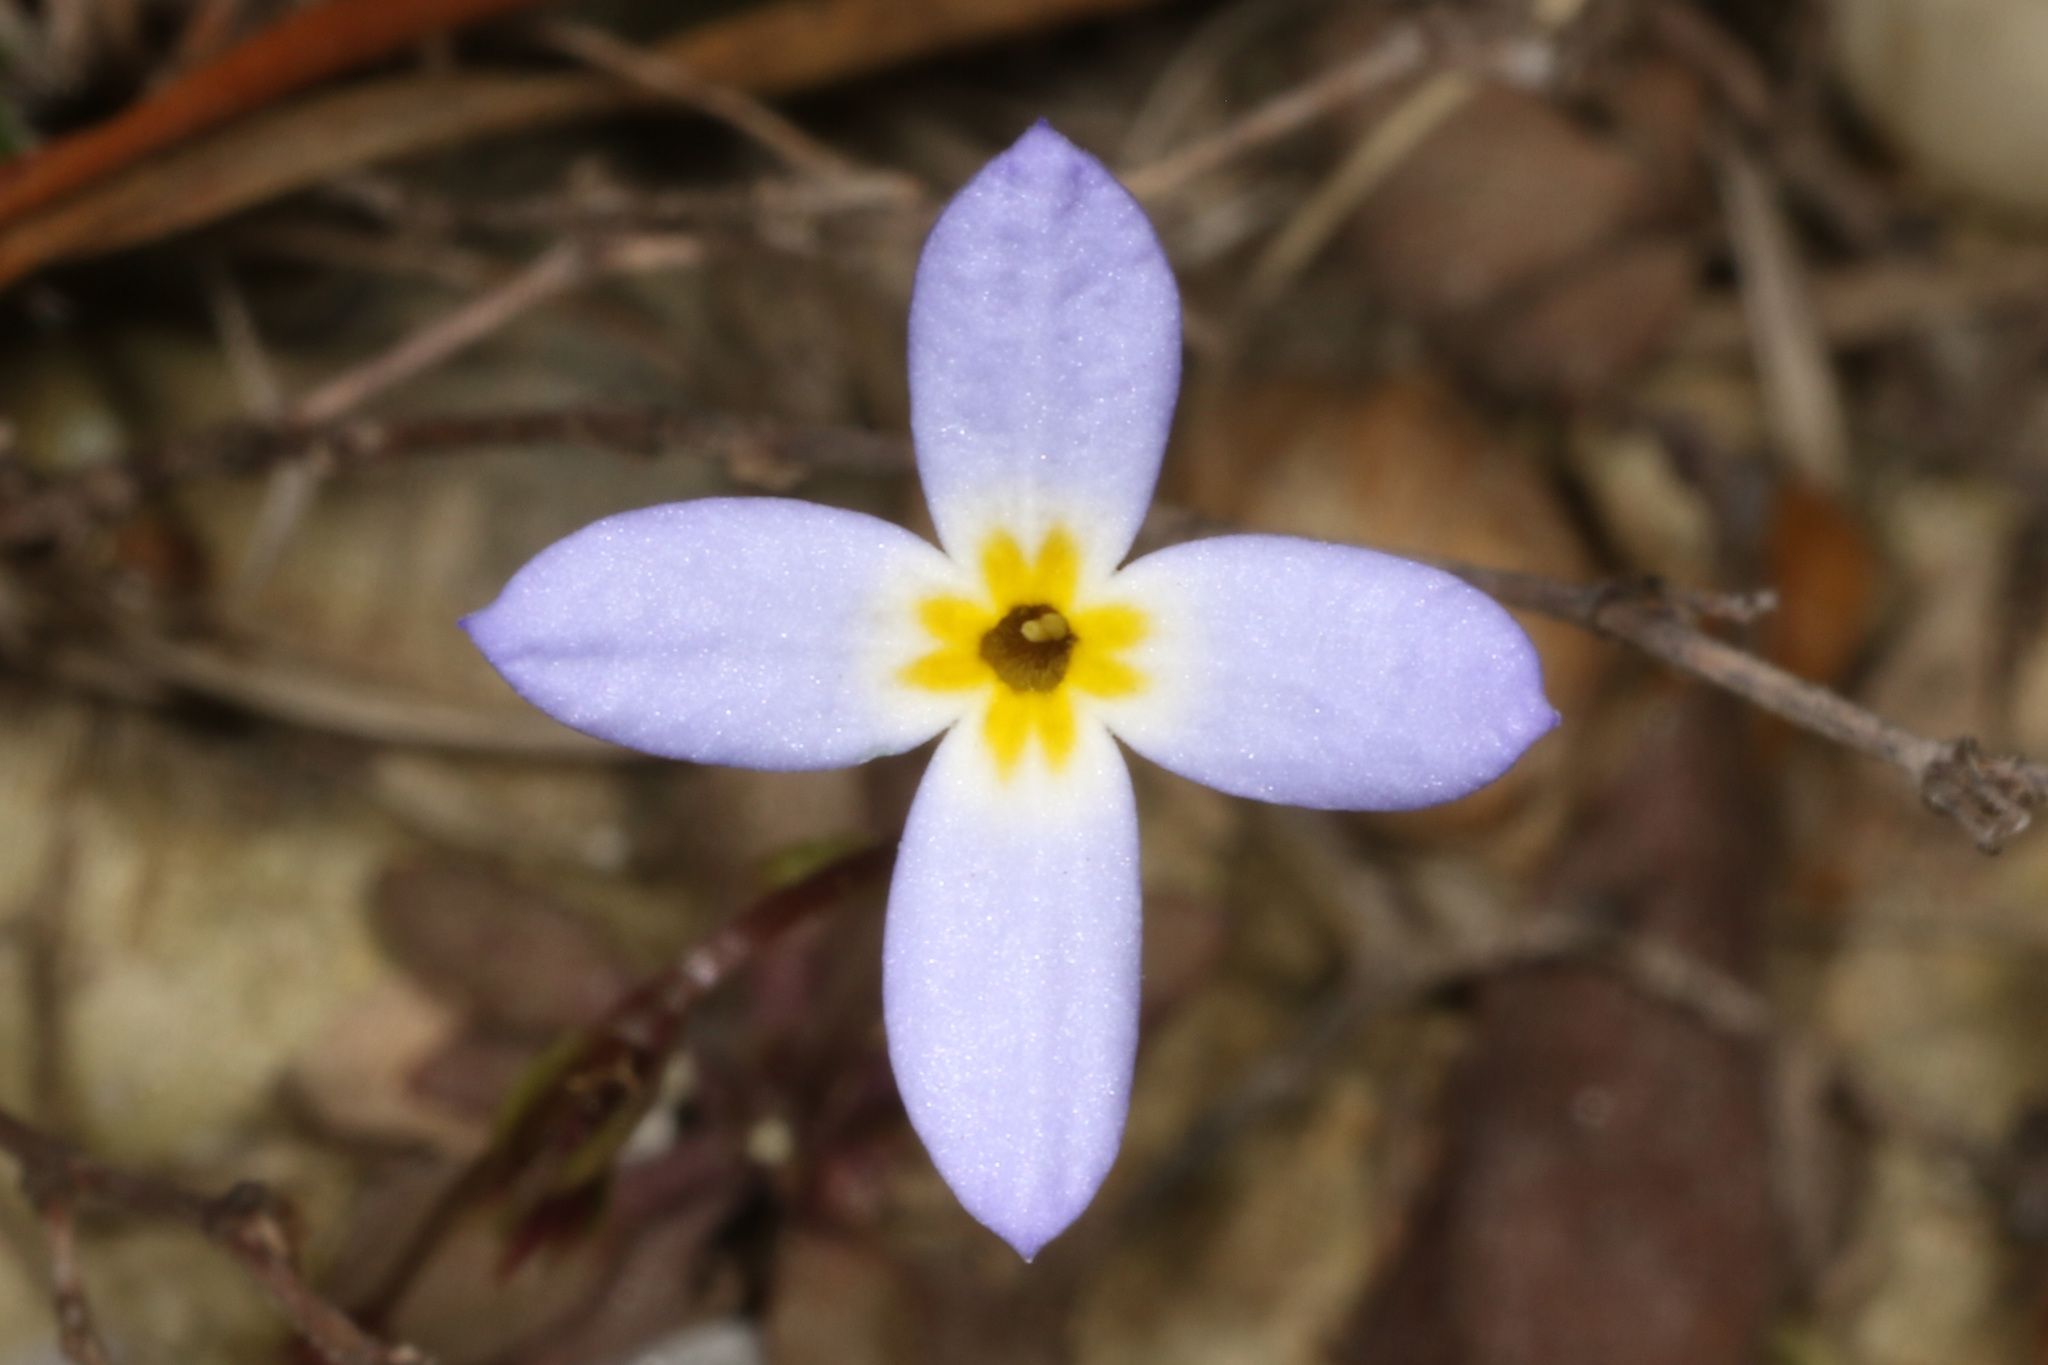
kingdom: Plantae
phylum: Tracheophyta
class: Magnoliopsida
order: Gentianales
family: Rubiaceae
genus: Houstonia
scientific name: Houstonia caerulea
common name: Bluets
